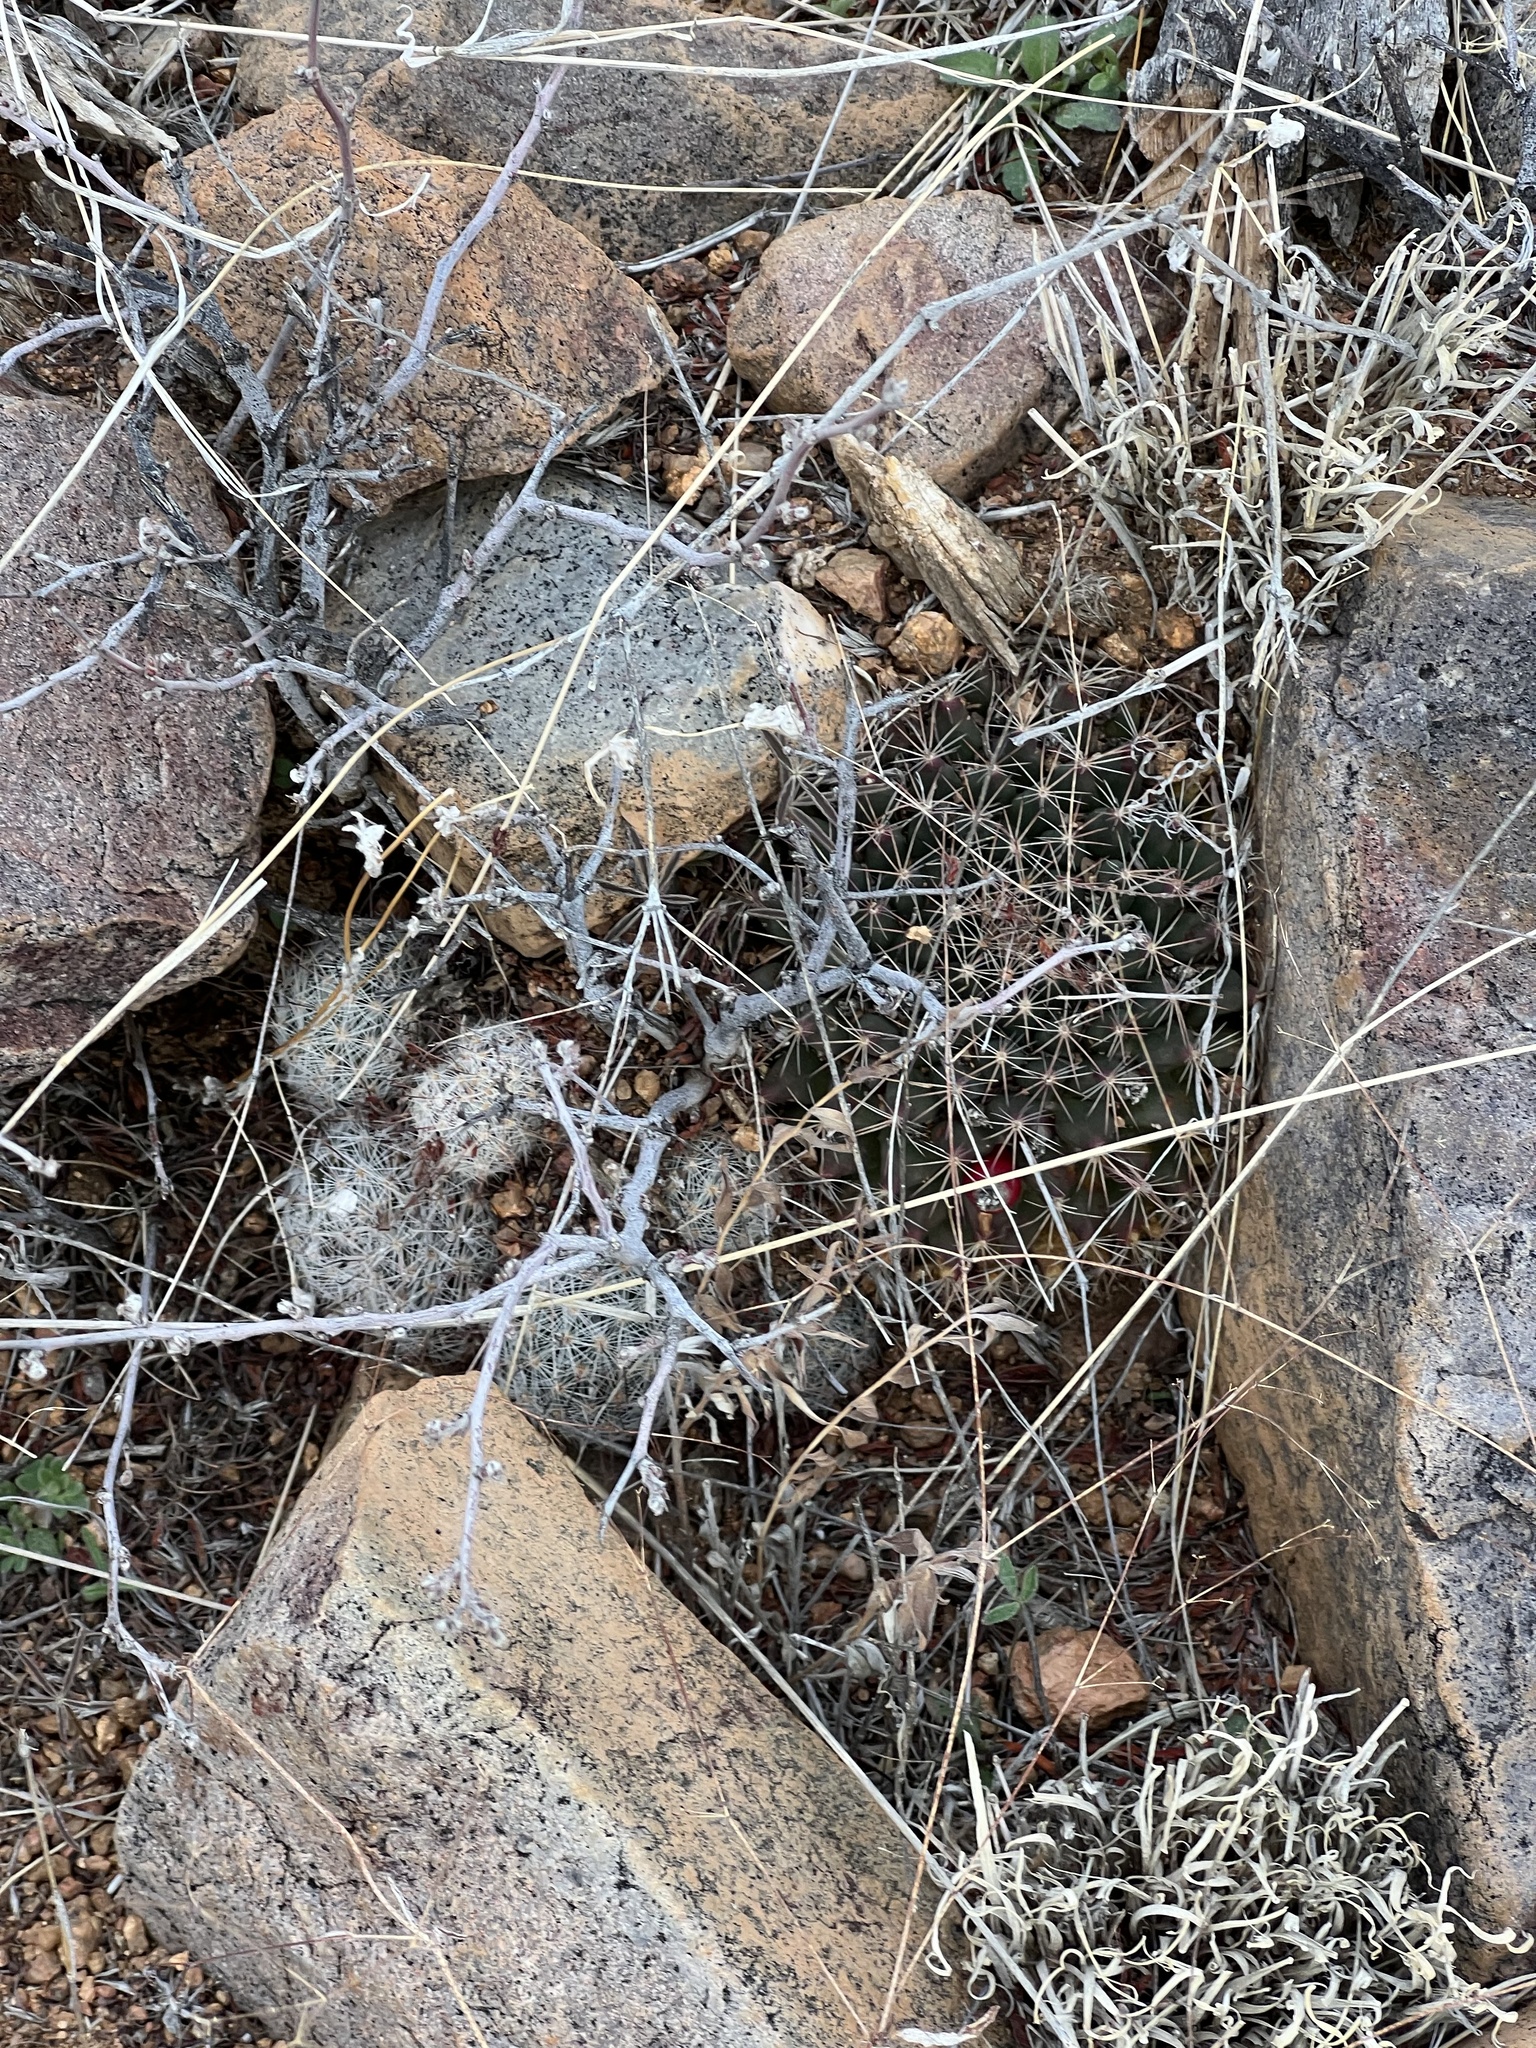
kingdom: Plantae
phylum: Tracheophyta
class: Magnoliopsida
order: Caryophyllales
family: Cactaceae
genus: Cochemiea
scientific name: Cochemiea grahamii
